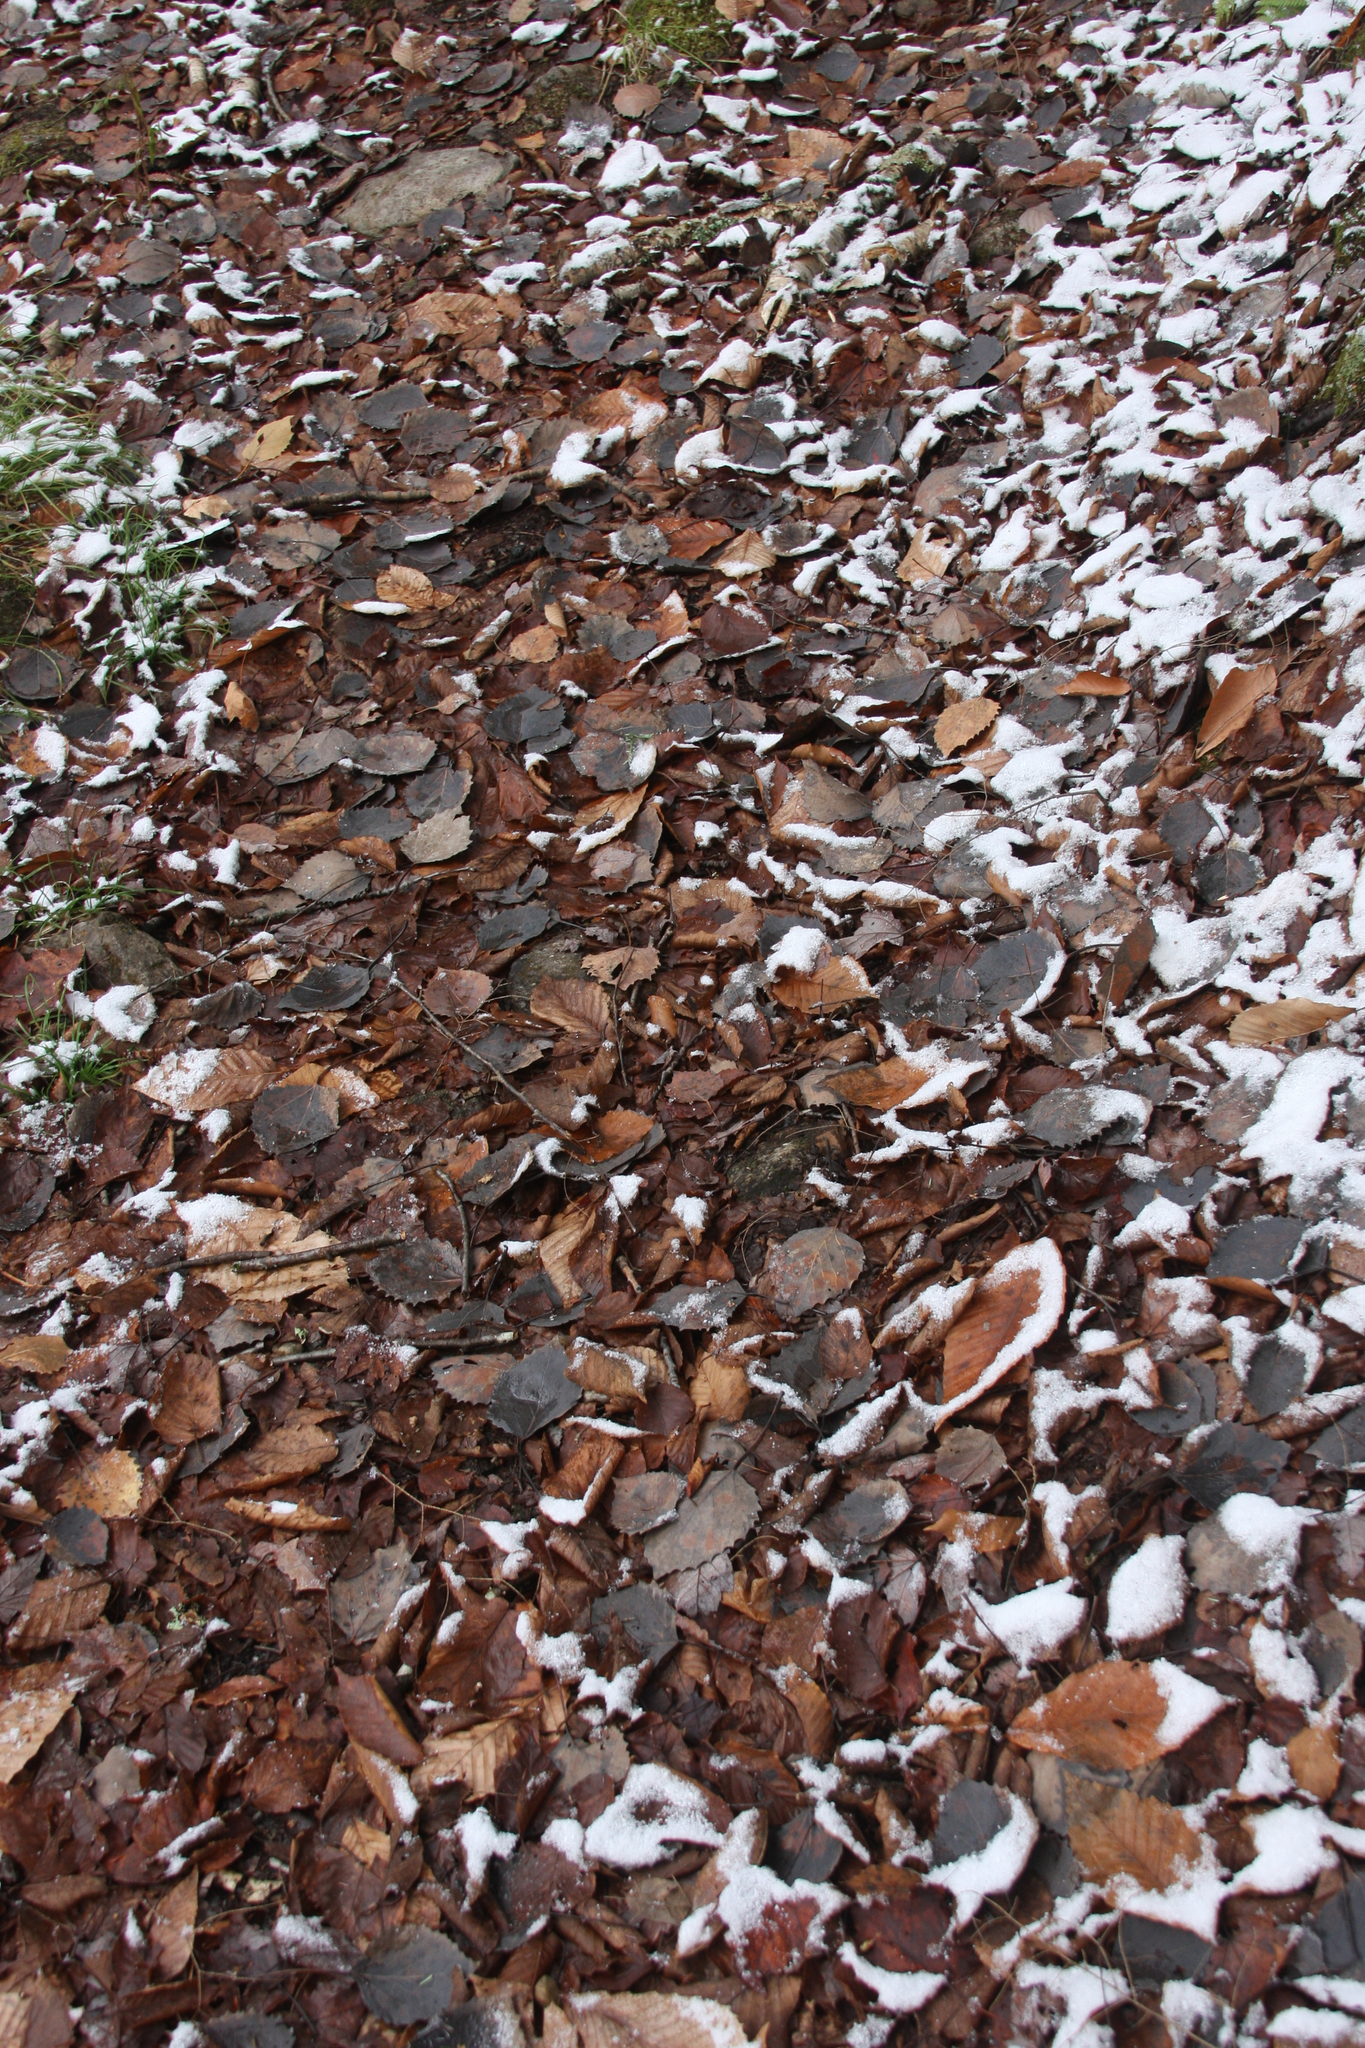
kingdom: Plantae
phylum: Tracheophyta
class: Magnoliopsida
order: Malpighiales
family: Salicaceae
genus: Populus
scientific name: Populus grandidentata
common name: Bigtooth aspen
